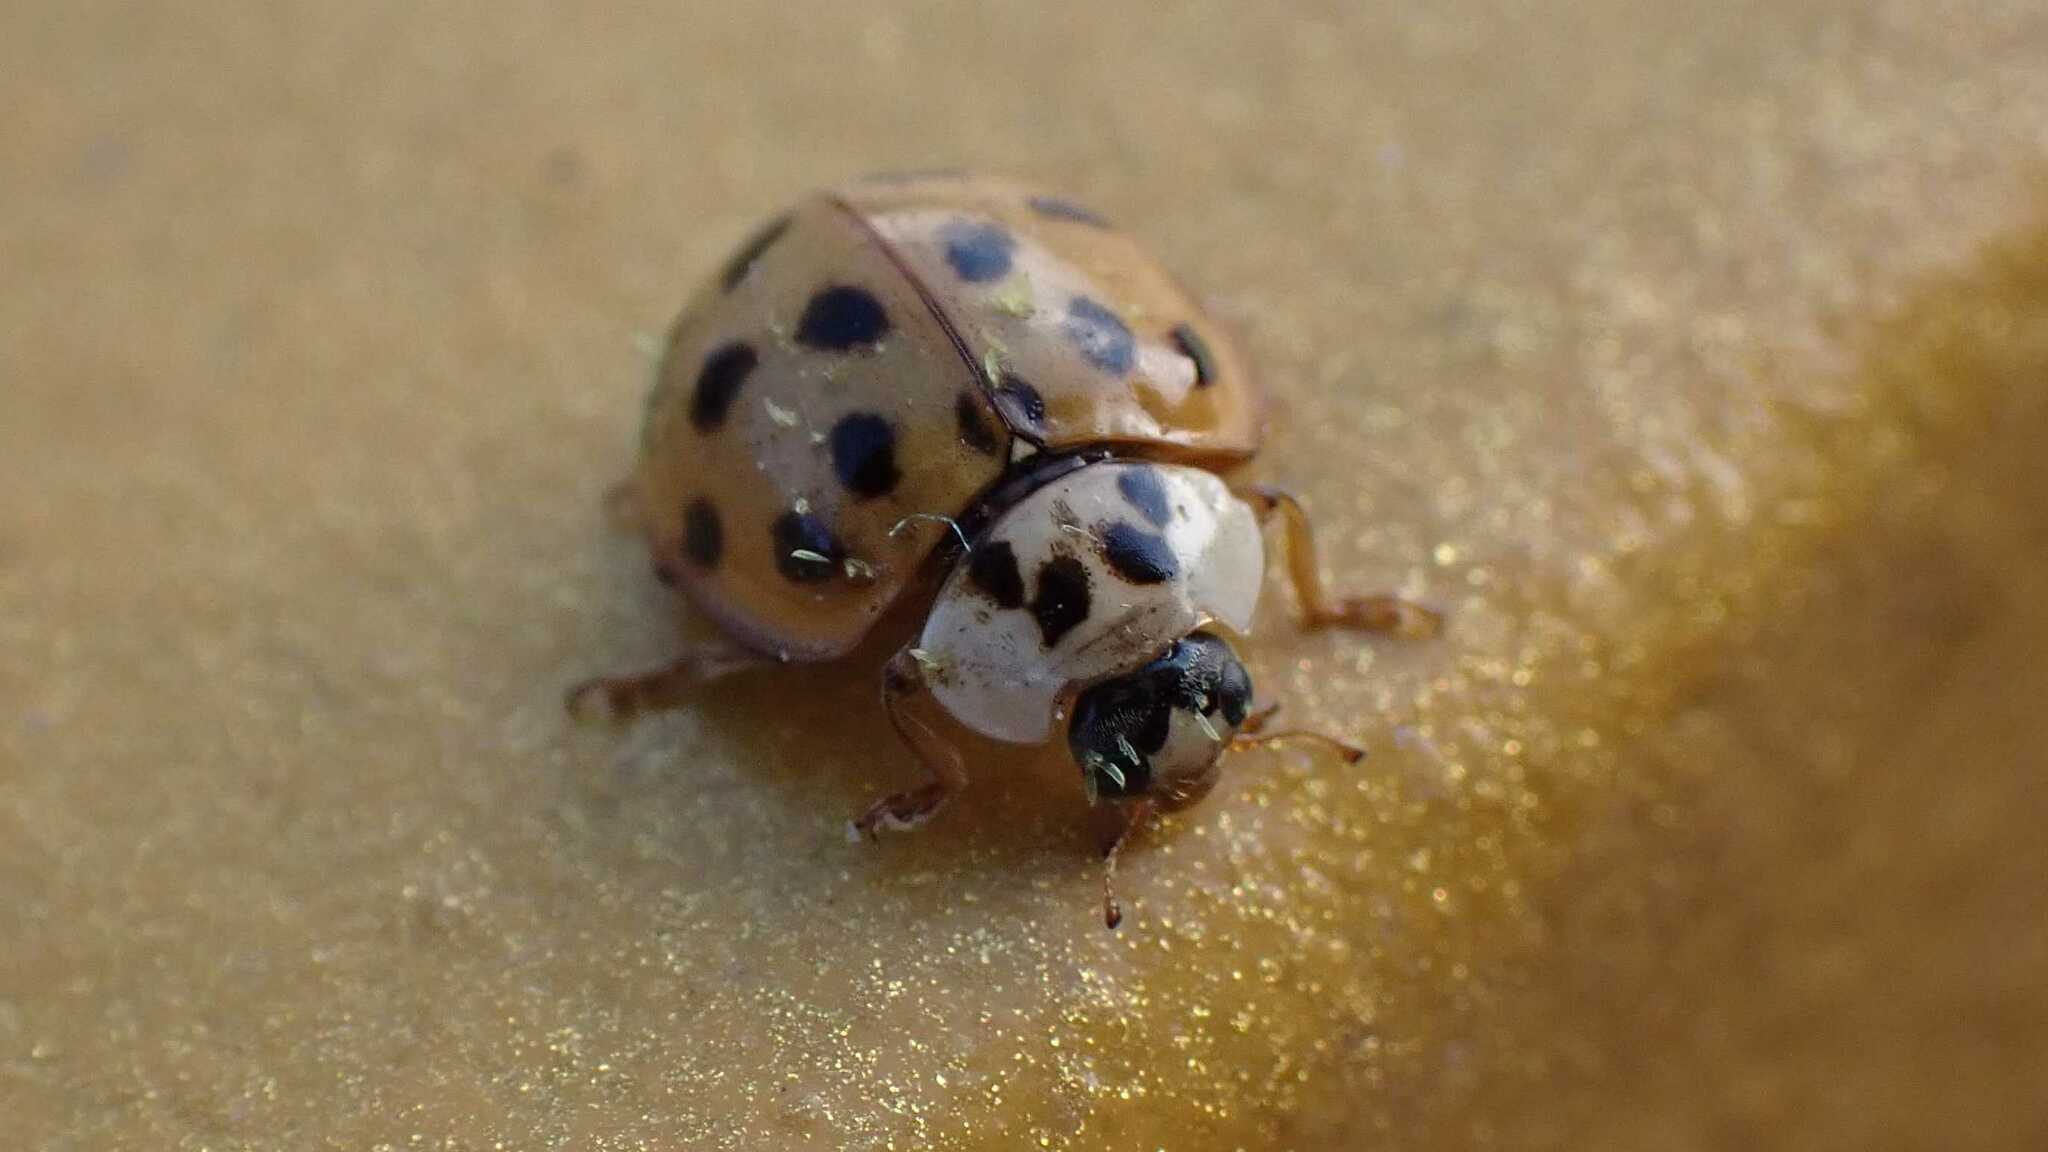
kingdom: Animalia
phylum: Arthropoda
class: Insecta
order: Coleoptera
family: Coccinellidae
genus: Harmonia
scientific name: Harmonia axyridis
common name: Harlequin ladybird
